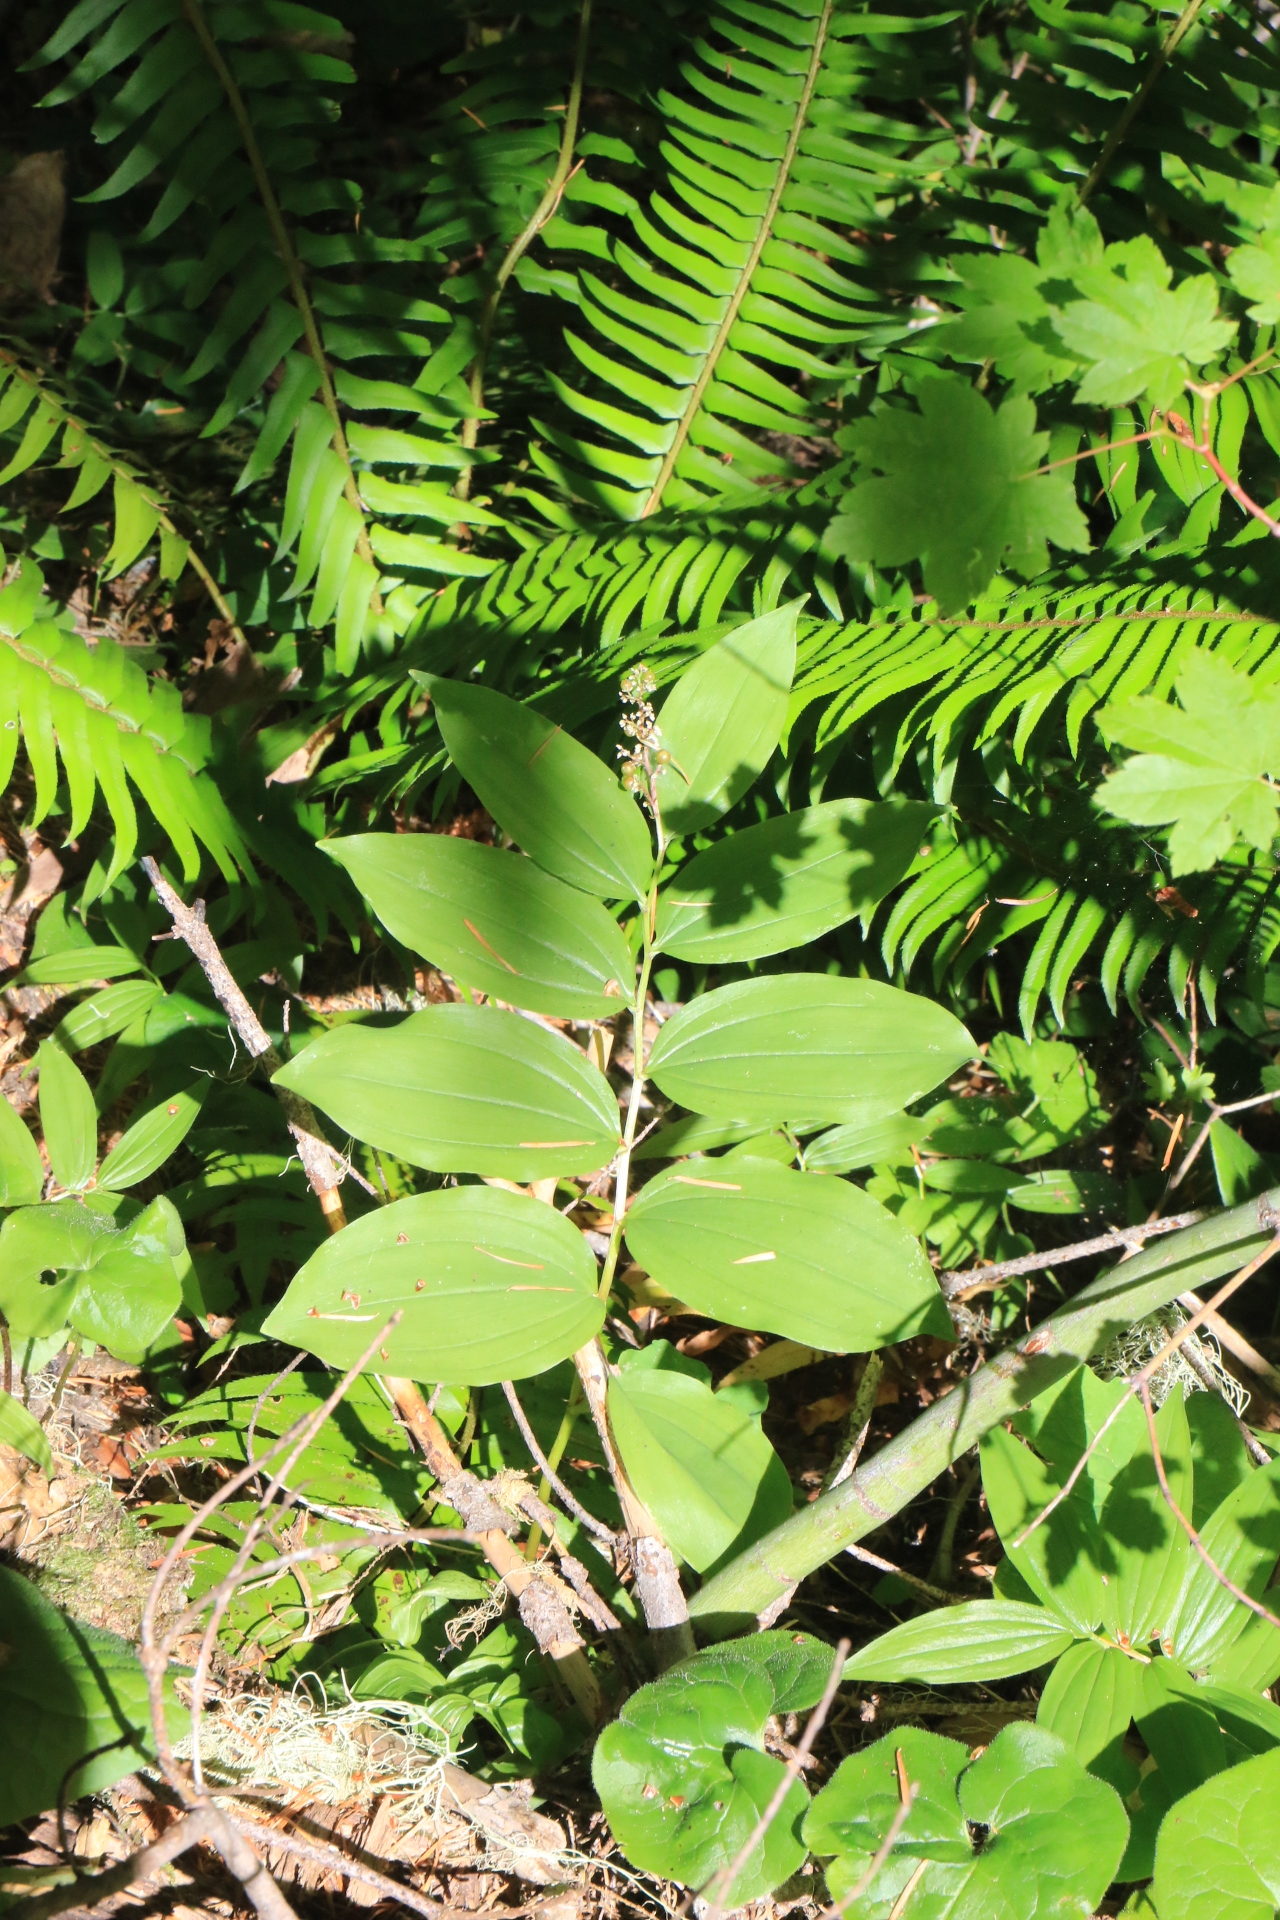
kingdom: Plantae
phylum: Tracheophyta
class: Liliopsida
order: Asparagales
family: Asparagaceae
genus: Maianthemum
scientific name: Maianthemum racemosum
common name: False spikenard
